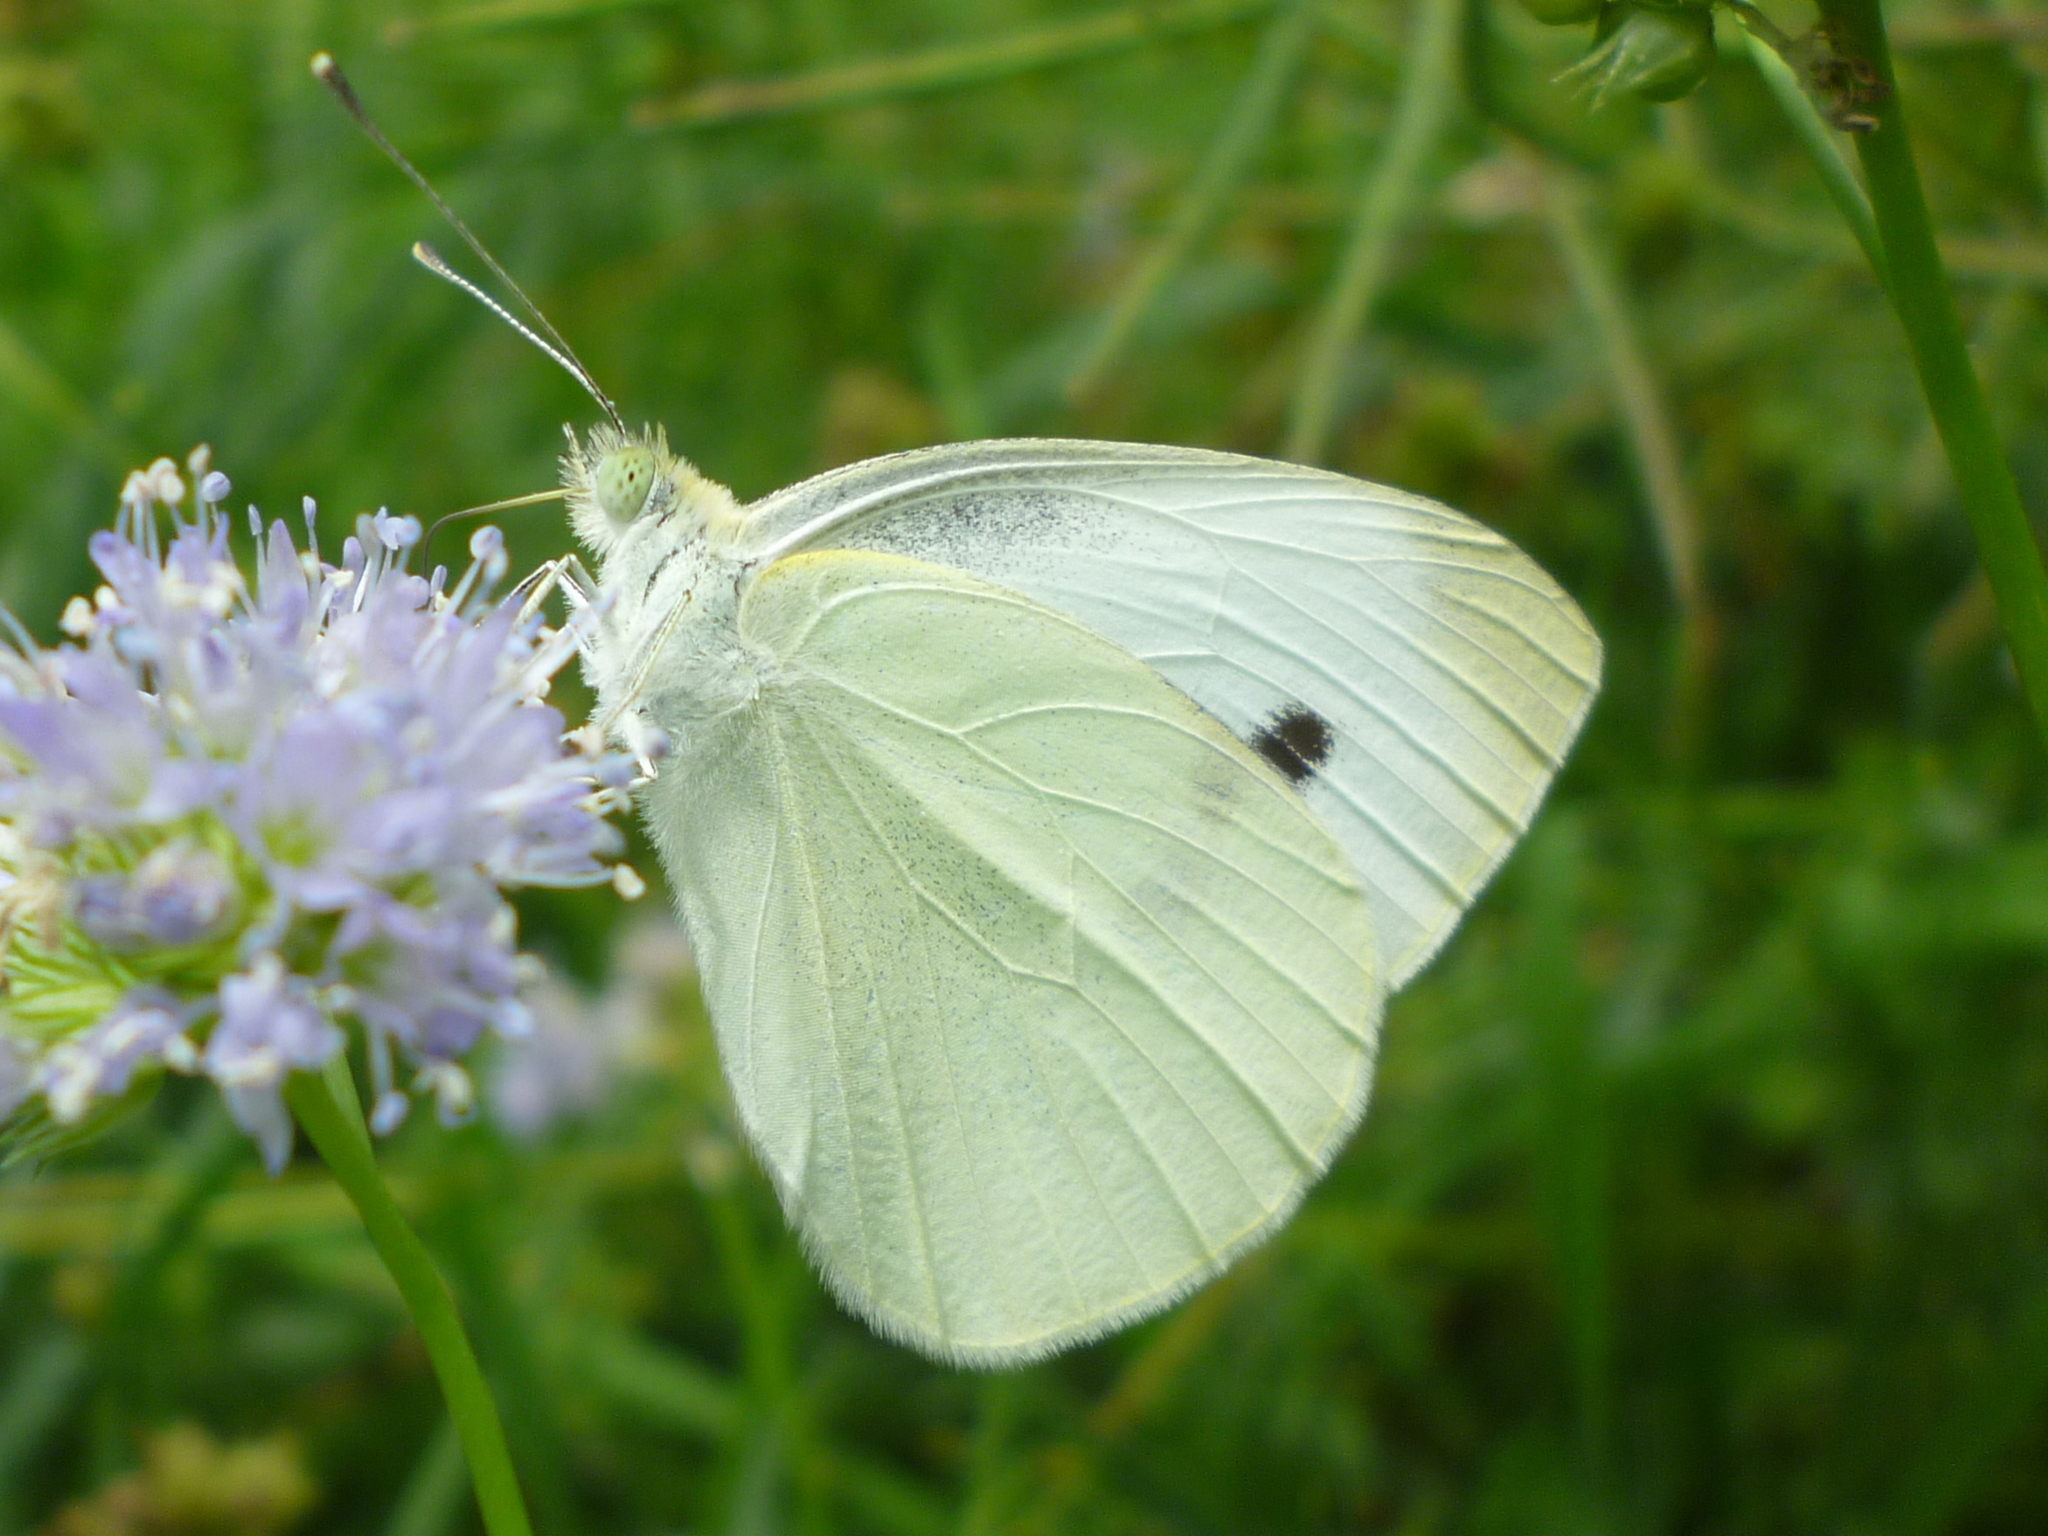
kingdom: Animalia
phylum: Arthropoda
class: Insecta
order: Lepidoptera
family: Pieridae
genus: Pieris
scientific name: Pieris rapae
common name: Small white
